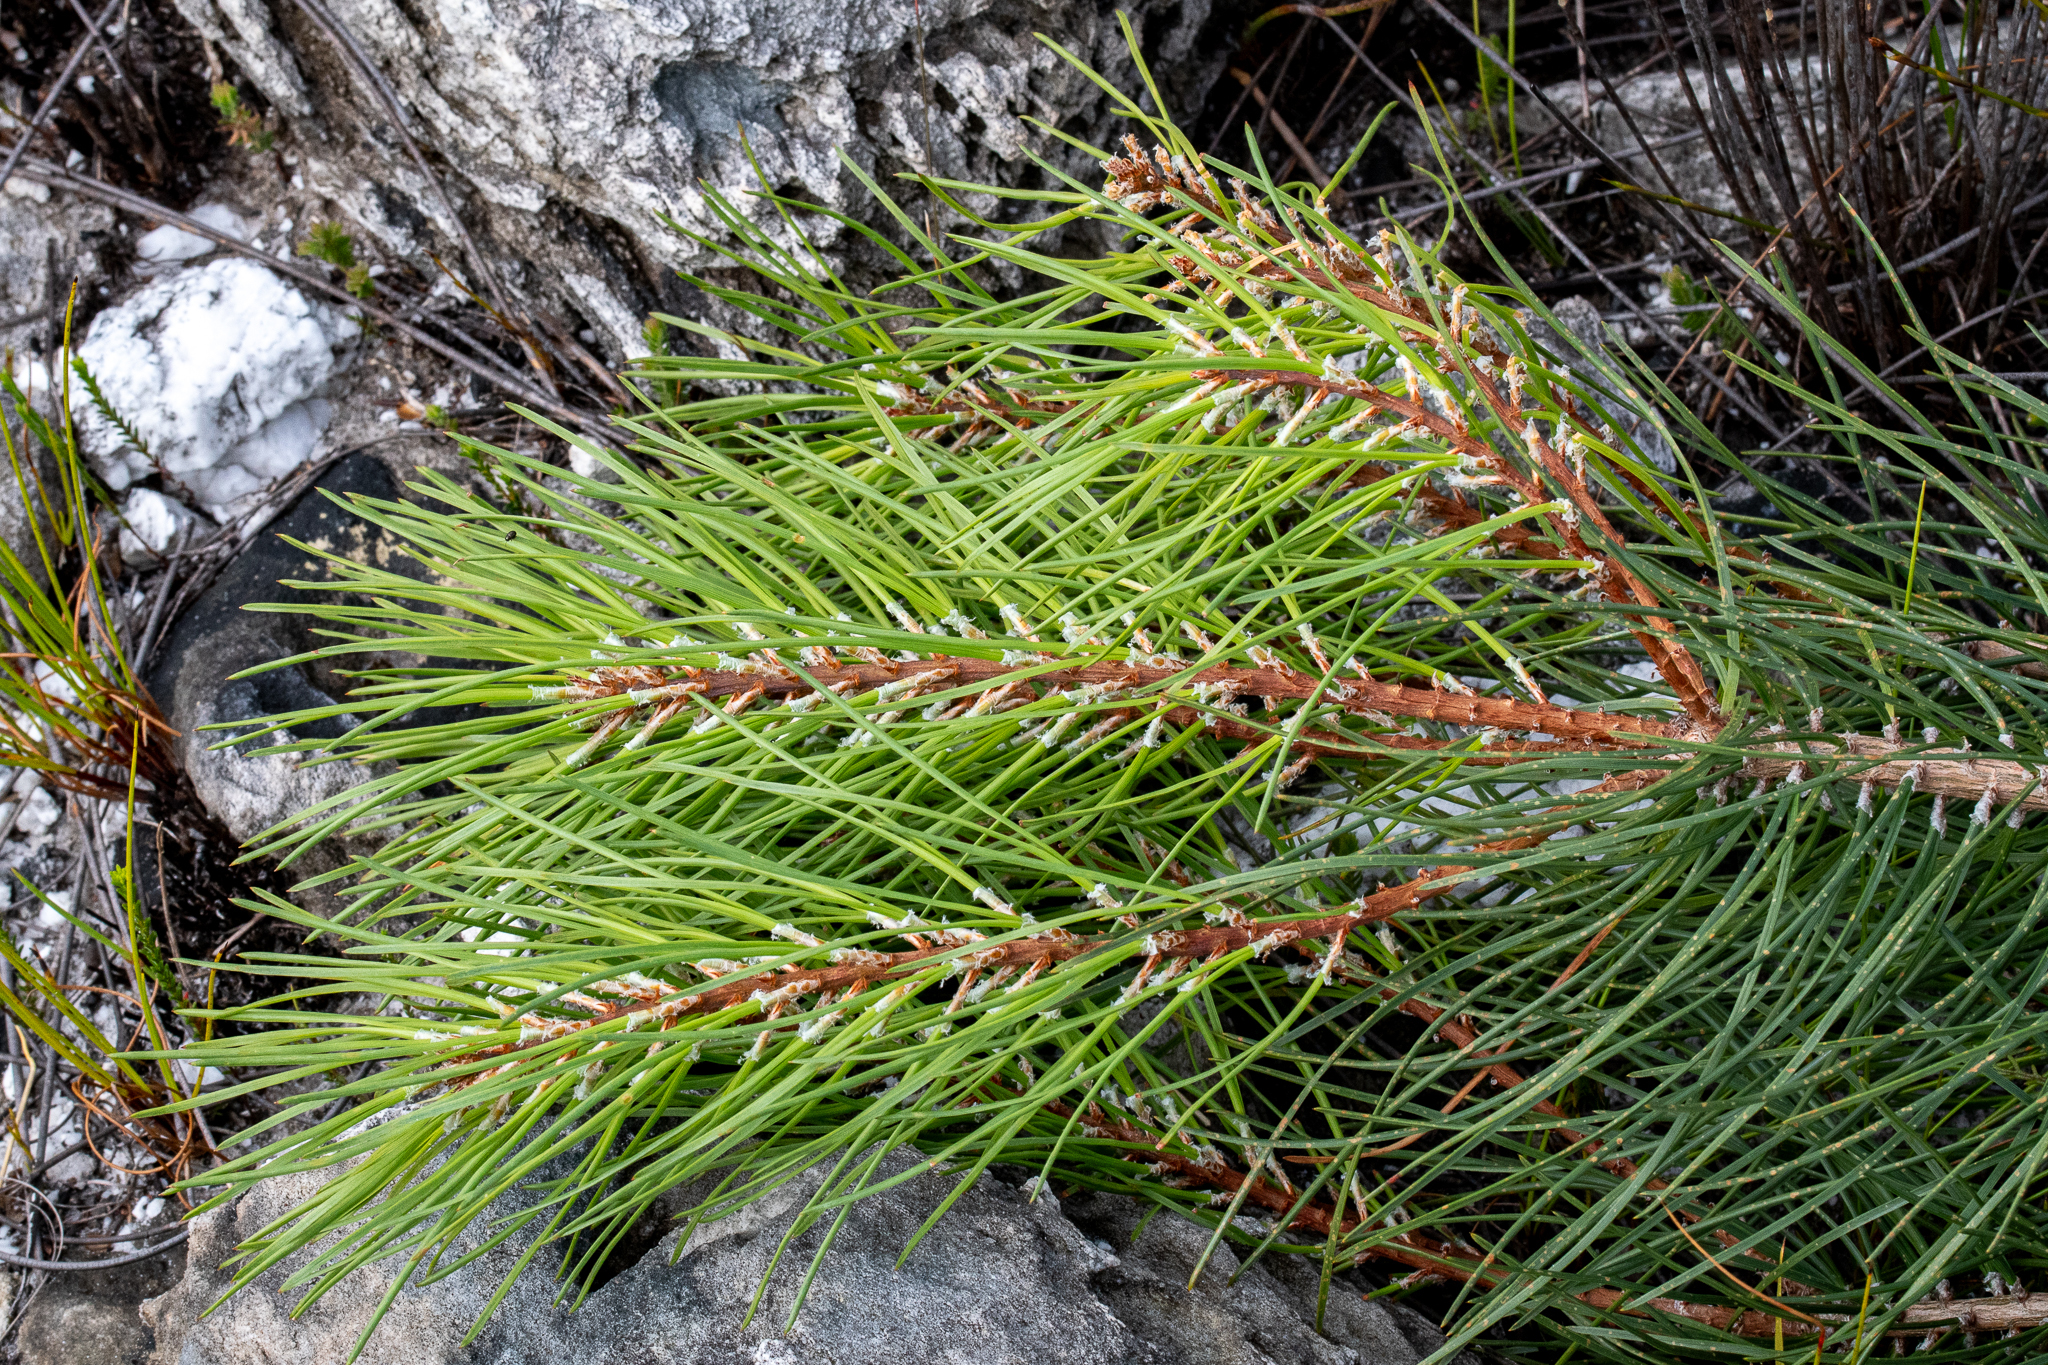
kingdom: Plantae
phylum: Tracheophyta
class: Pinopsida
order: Pinales
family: Pinaceae
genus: Pinus
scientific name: Pinus pinaster
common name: Maritime pine
